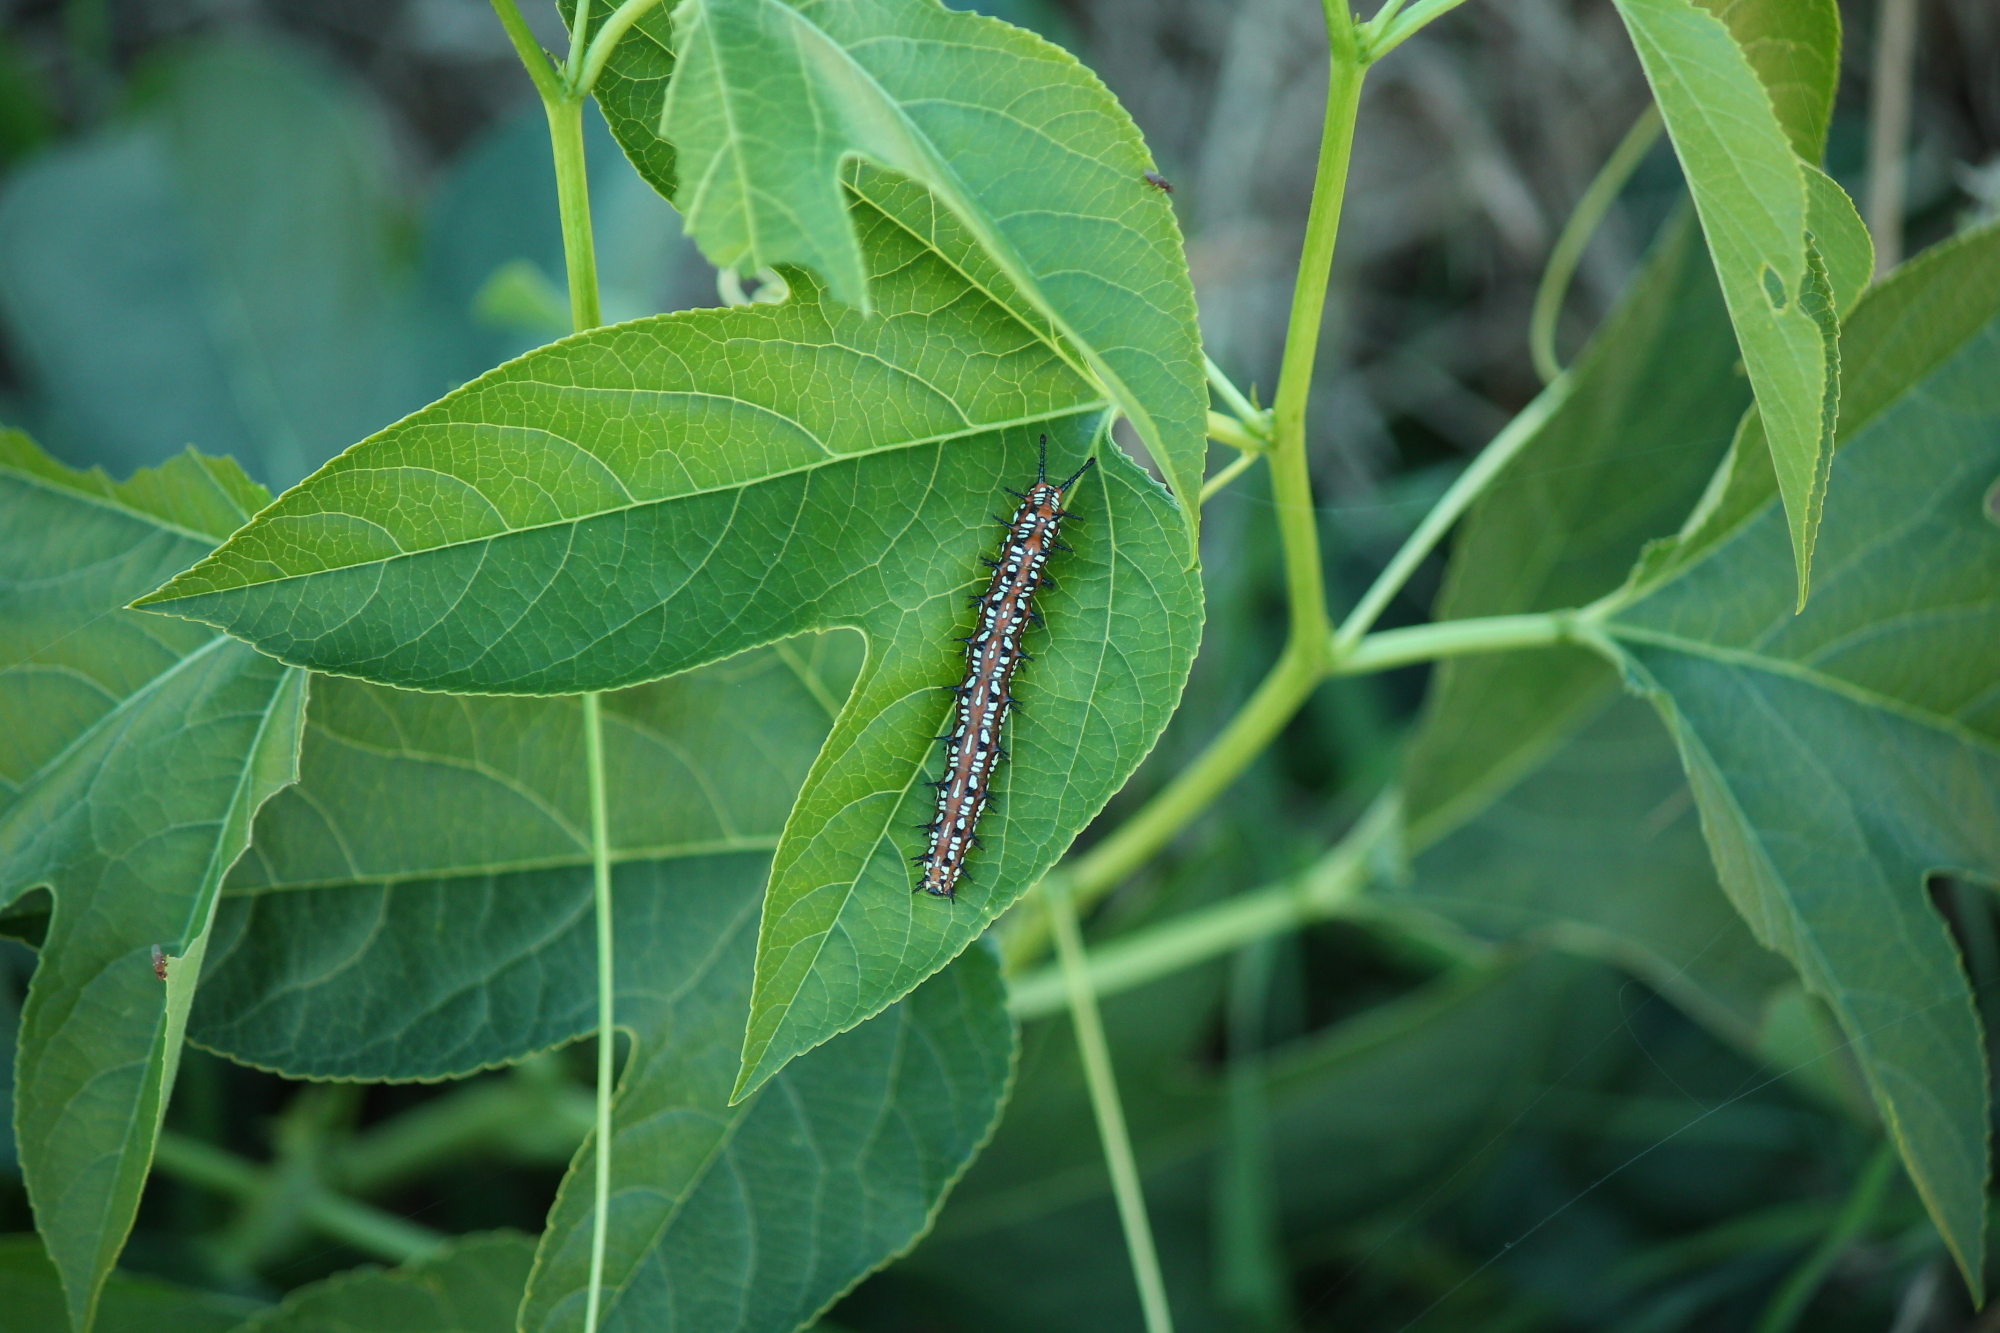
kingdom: Animalia
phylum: Arthropoda
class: Insecta
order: Lepidoptera
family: Nymphalidae
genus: Euptoieta
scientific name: Euptoieta claudia
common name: Variegated fritillary
